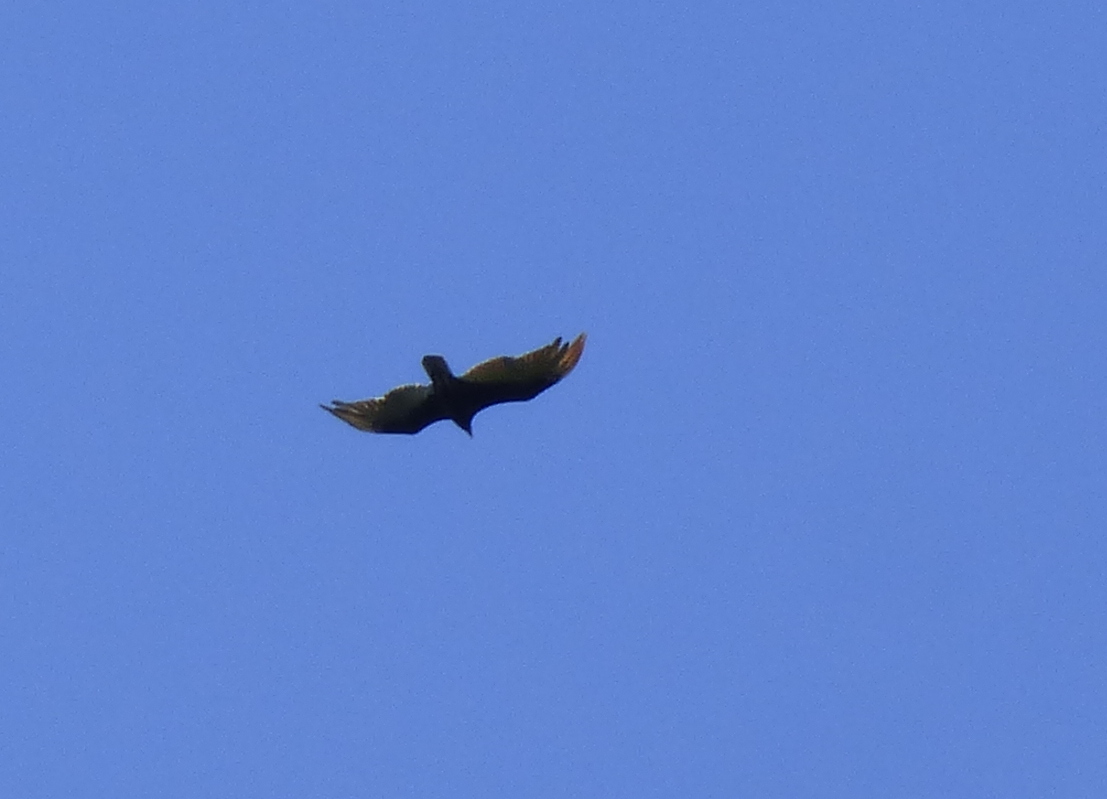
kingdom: Animalia
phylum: Chordata
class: Aves
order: Accipitriformes
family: Cathartidae
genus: Cathartes
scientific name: Cathartes aura
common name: Turkey vulture
